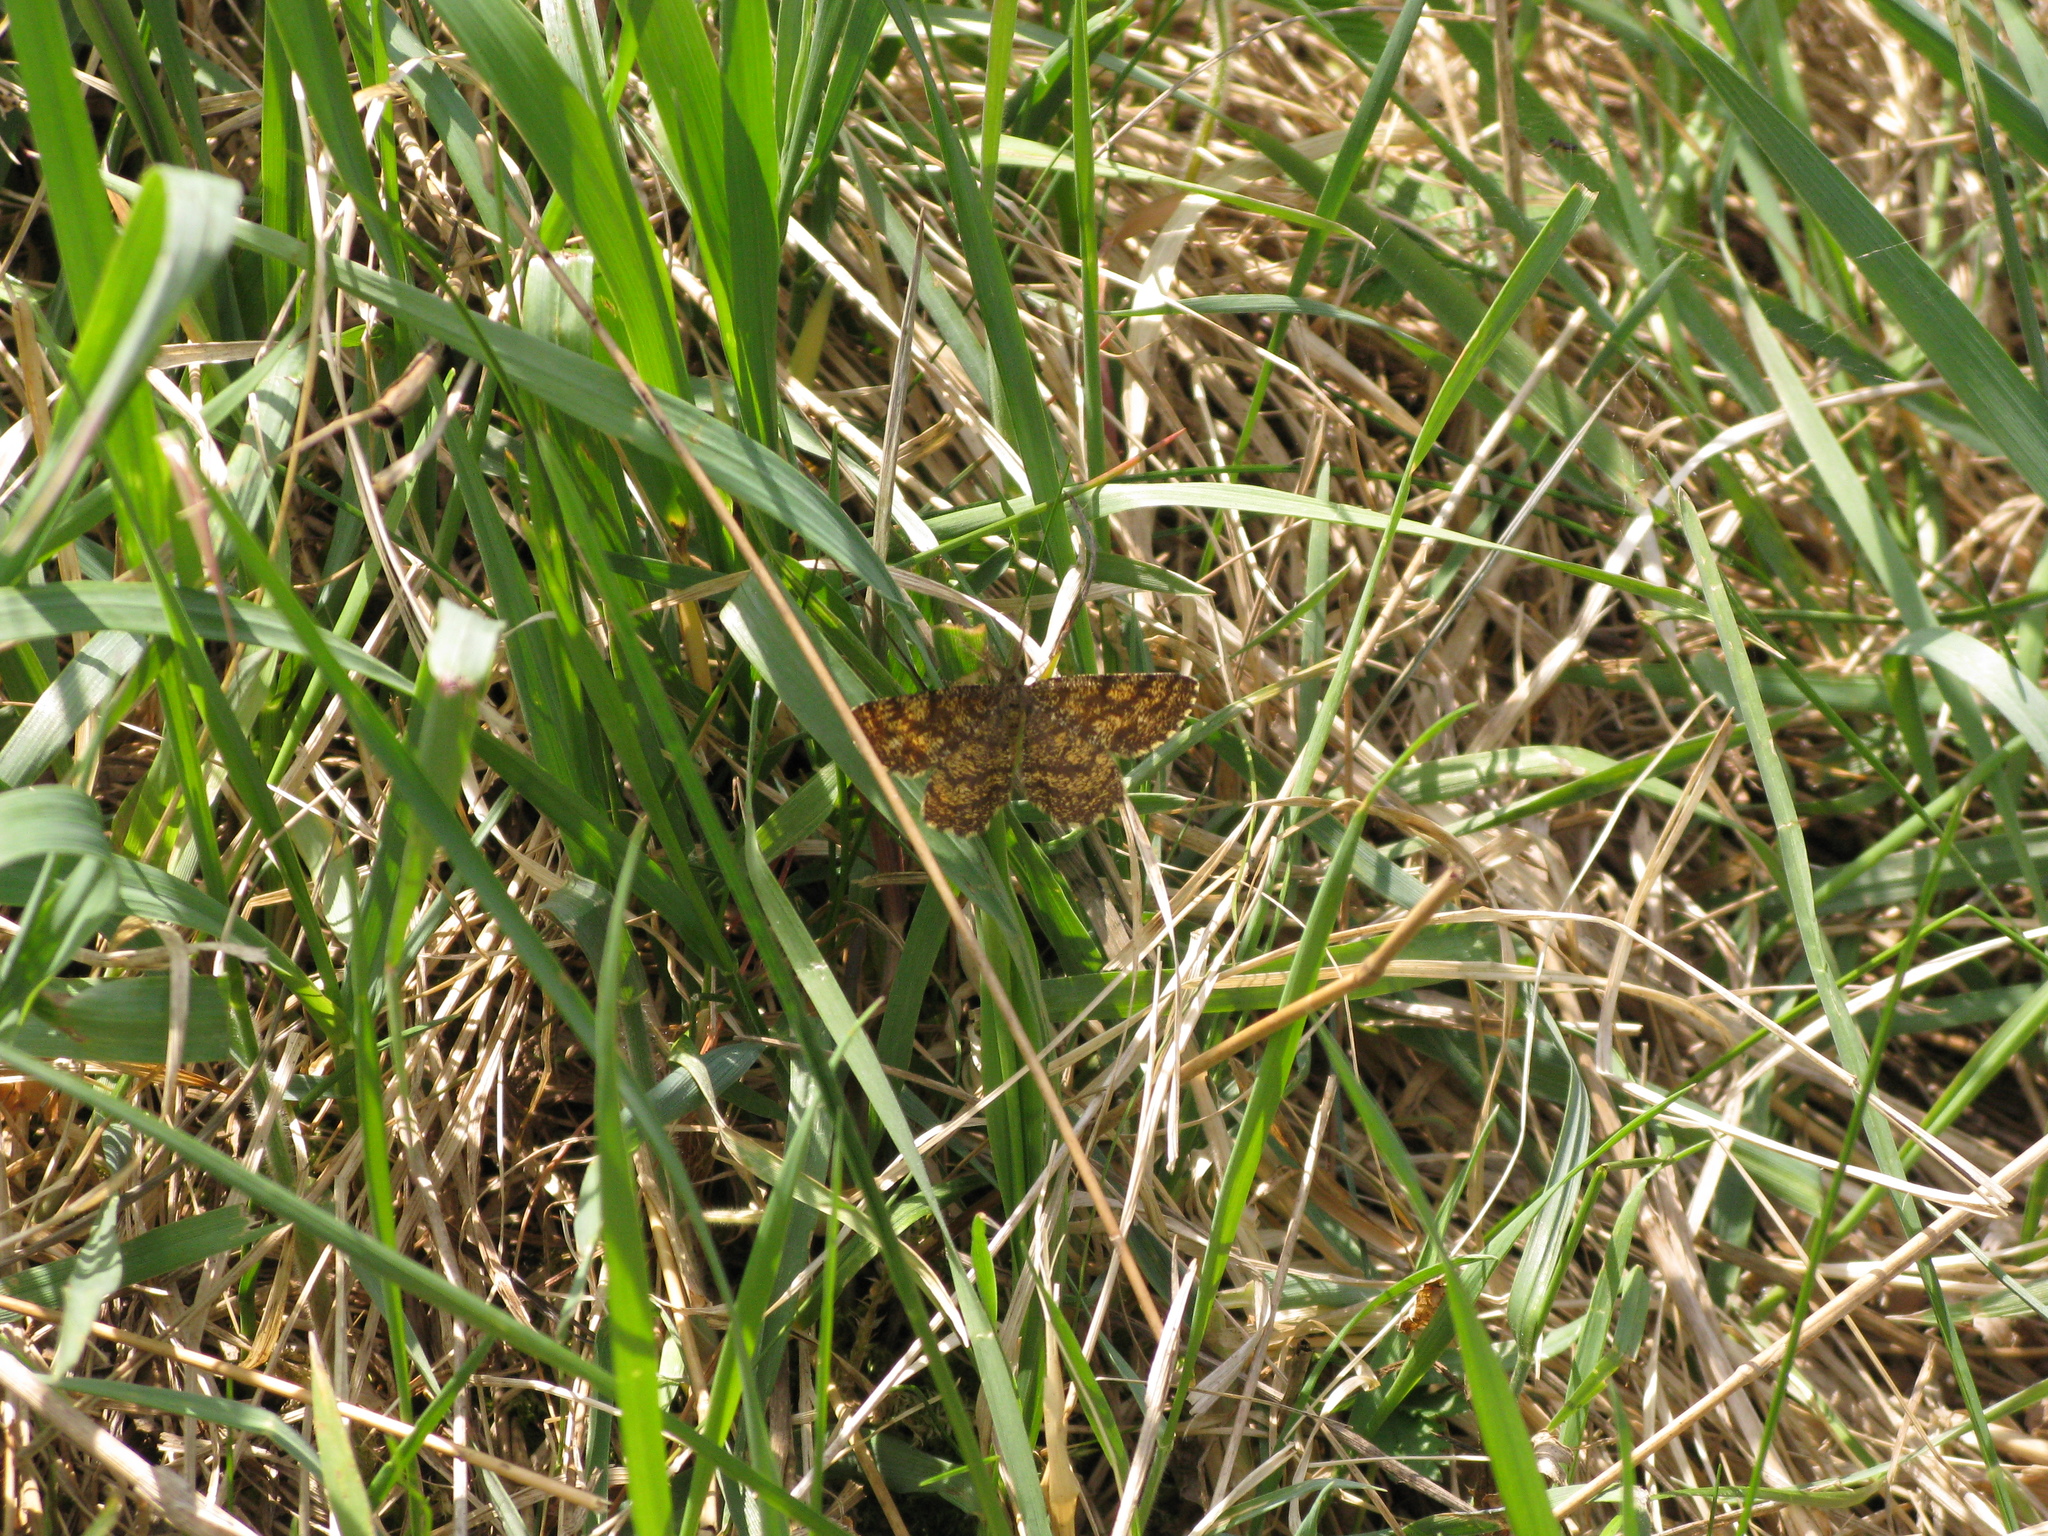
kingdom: Animalia
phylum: Arthropoda
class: Insecta
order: Lepidoptera
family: Geometridae
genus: Ematurga
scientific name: Ematurga atomaria
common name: Common heath
